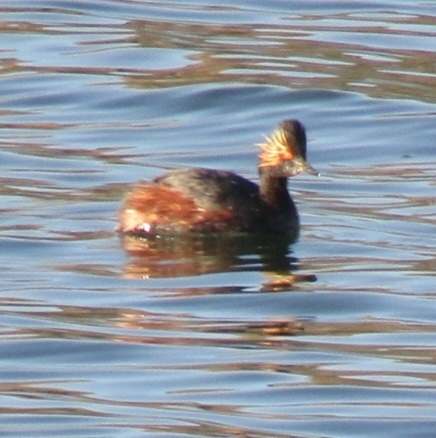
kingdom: Animalia
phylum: Chordata
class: Aves
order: Podicipediformes
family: Podicipedidae
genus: Podiceps
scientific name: Podiceps nigricollis
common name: Black-necked grebe
